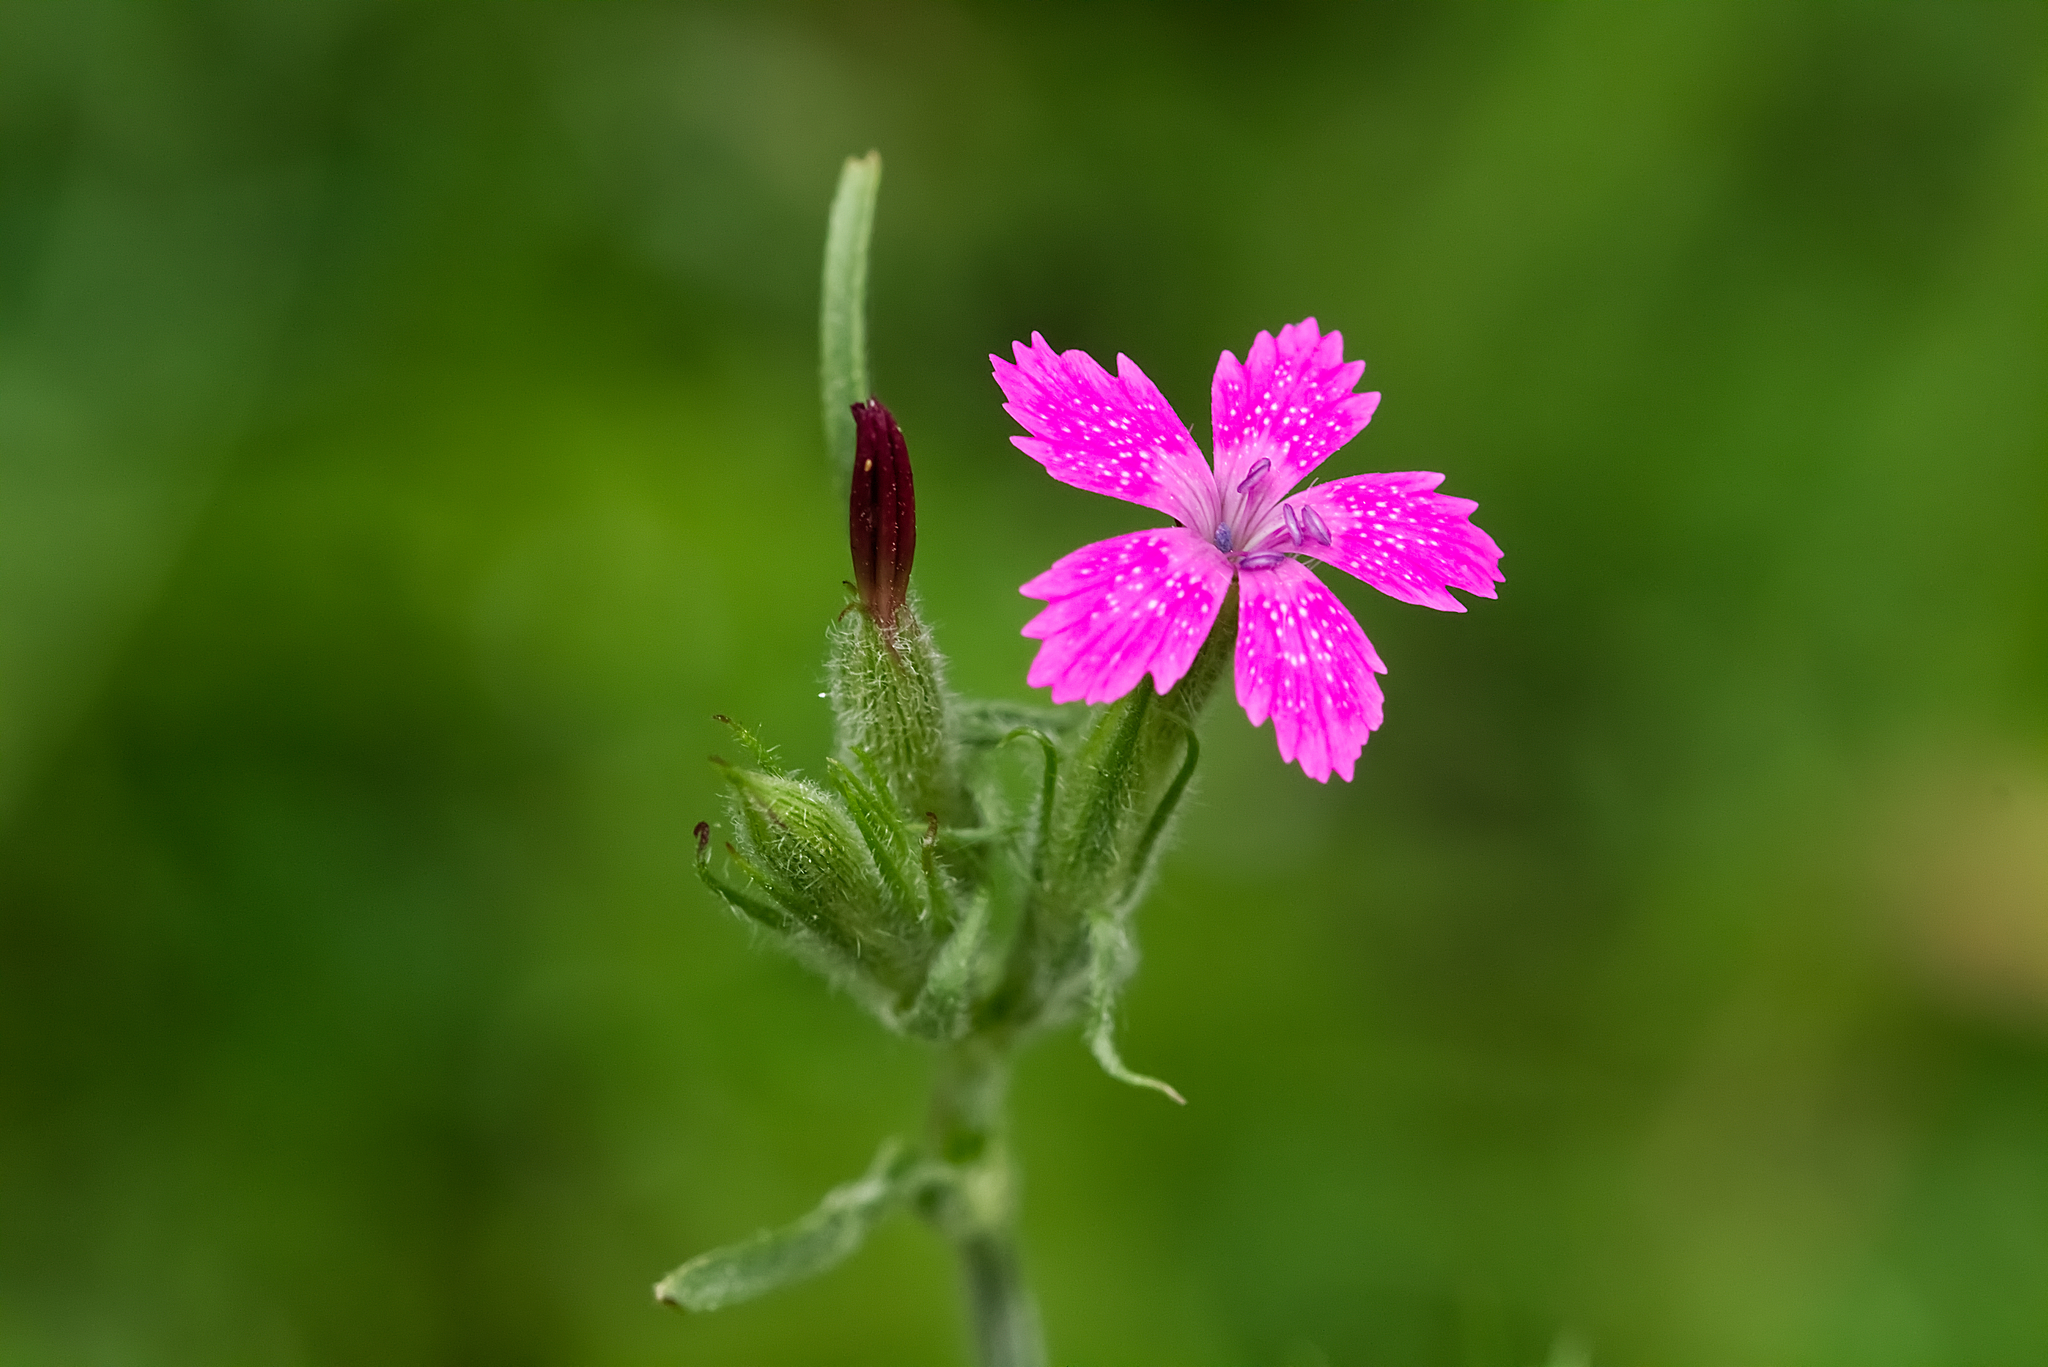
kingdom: Plantae
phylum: Tracheophyta
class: Magnoliopsida
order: Caryophyllales
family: Caryophyllaceae
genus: Dianthus
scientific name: Dianthus armeria
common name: Deptford pink
